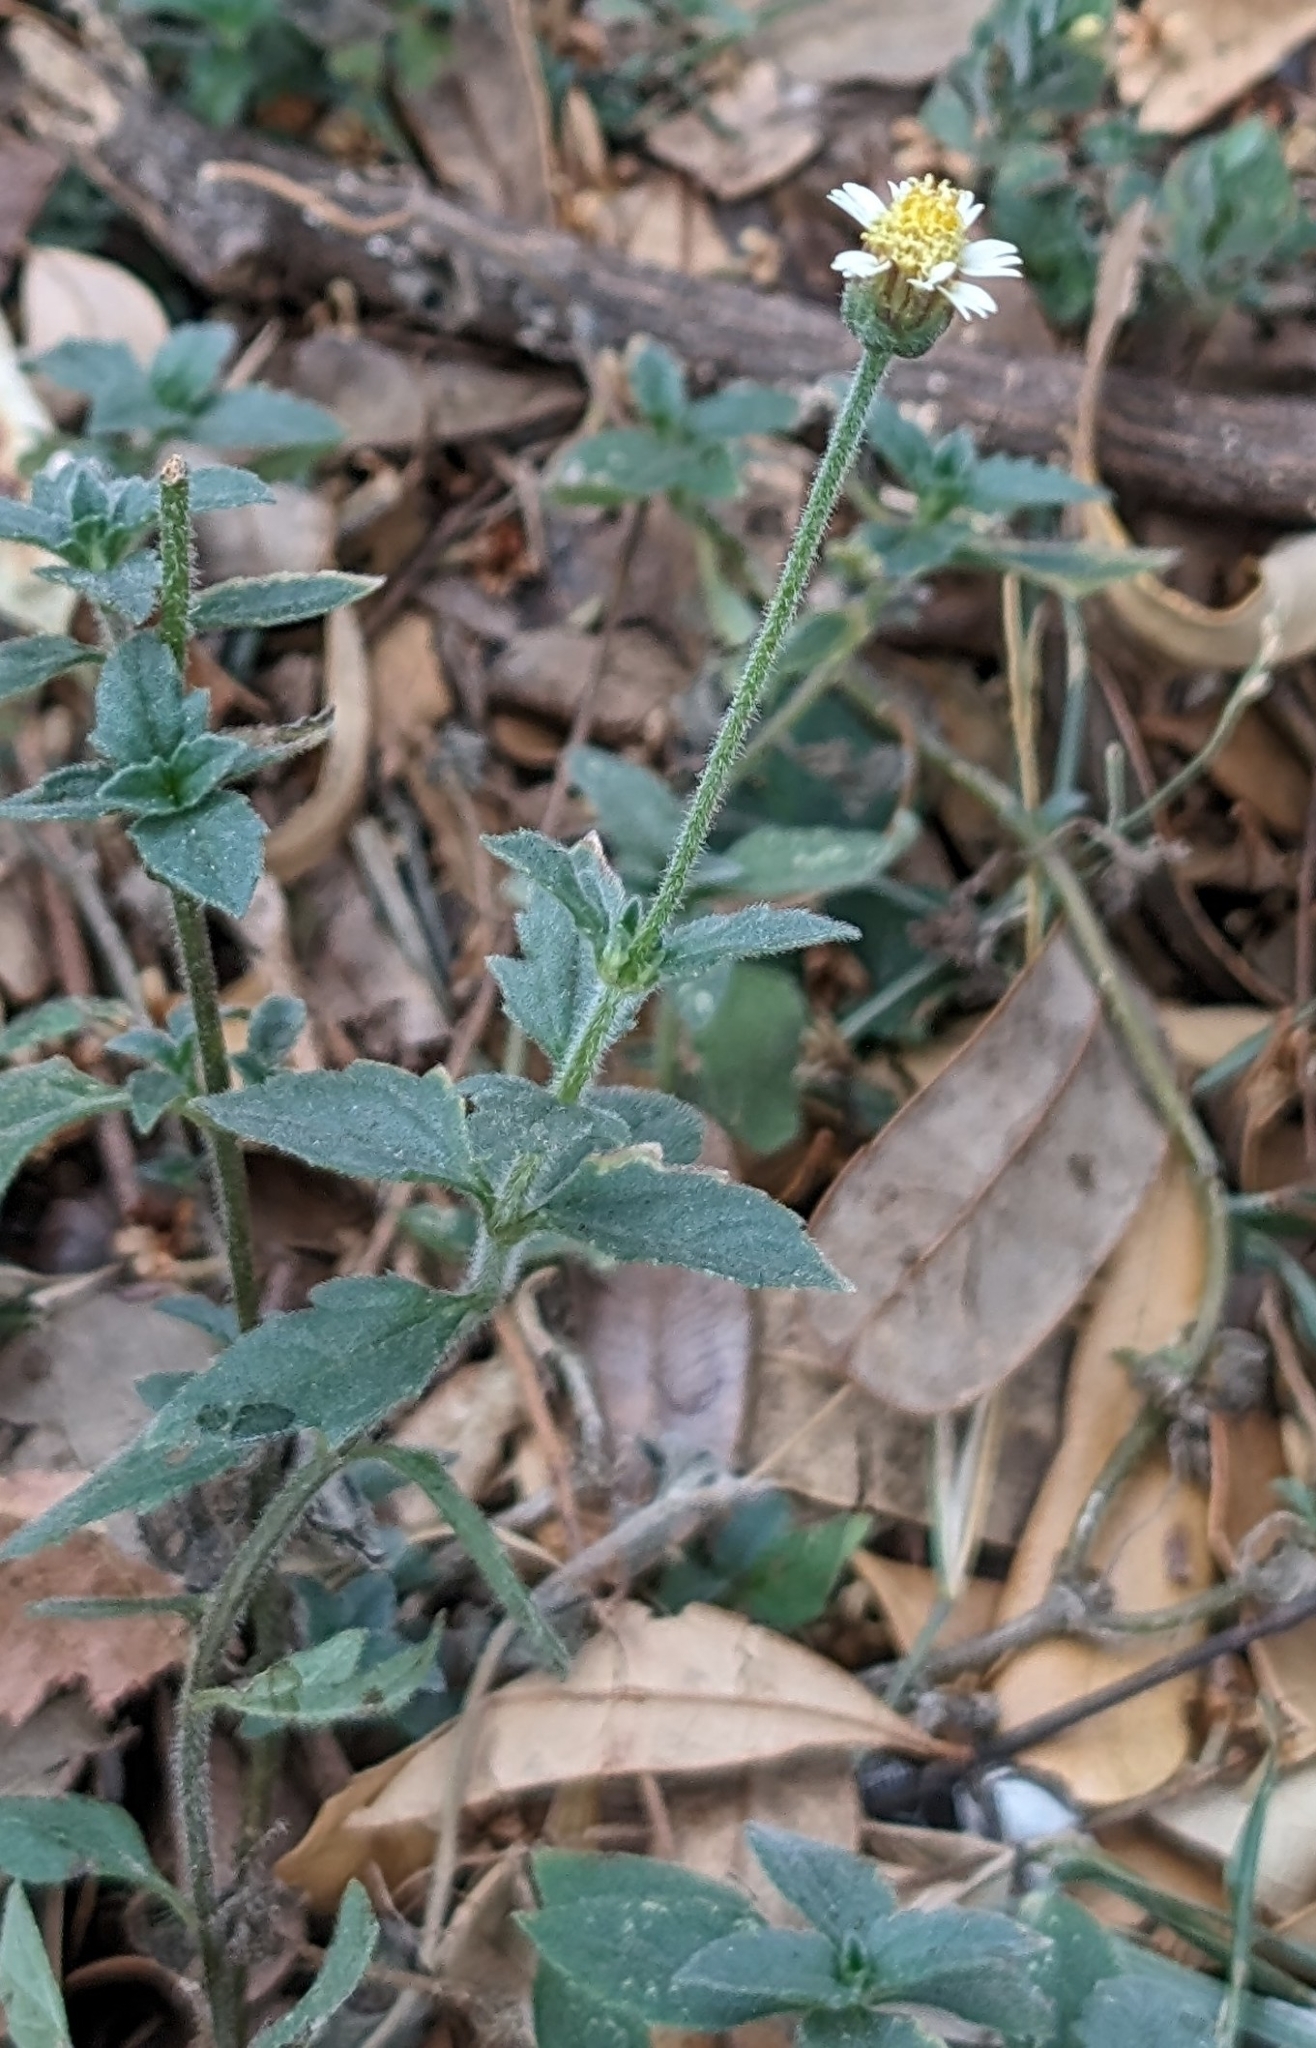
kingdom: Plantae
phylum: Tracheophyta
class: Magnoliopsida
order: Asterales
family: Asteraceae
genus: Tridax
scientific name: Tridax procumbens
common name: Coatbuttons
